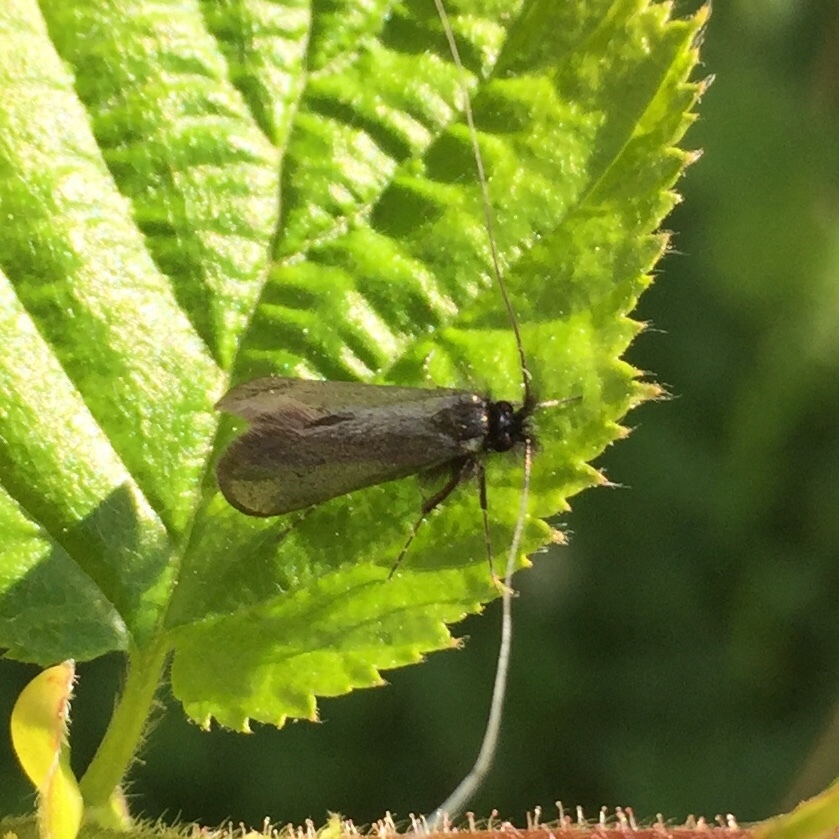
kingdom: Animalia
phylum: Arthropoda
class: Insecta
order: Lepidoptera
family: Adelidae
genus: Adela
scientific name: Adela viridella
